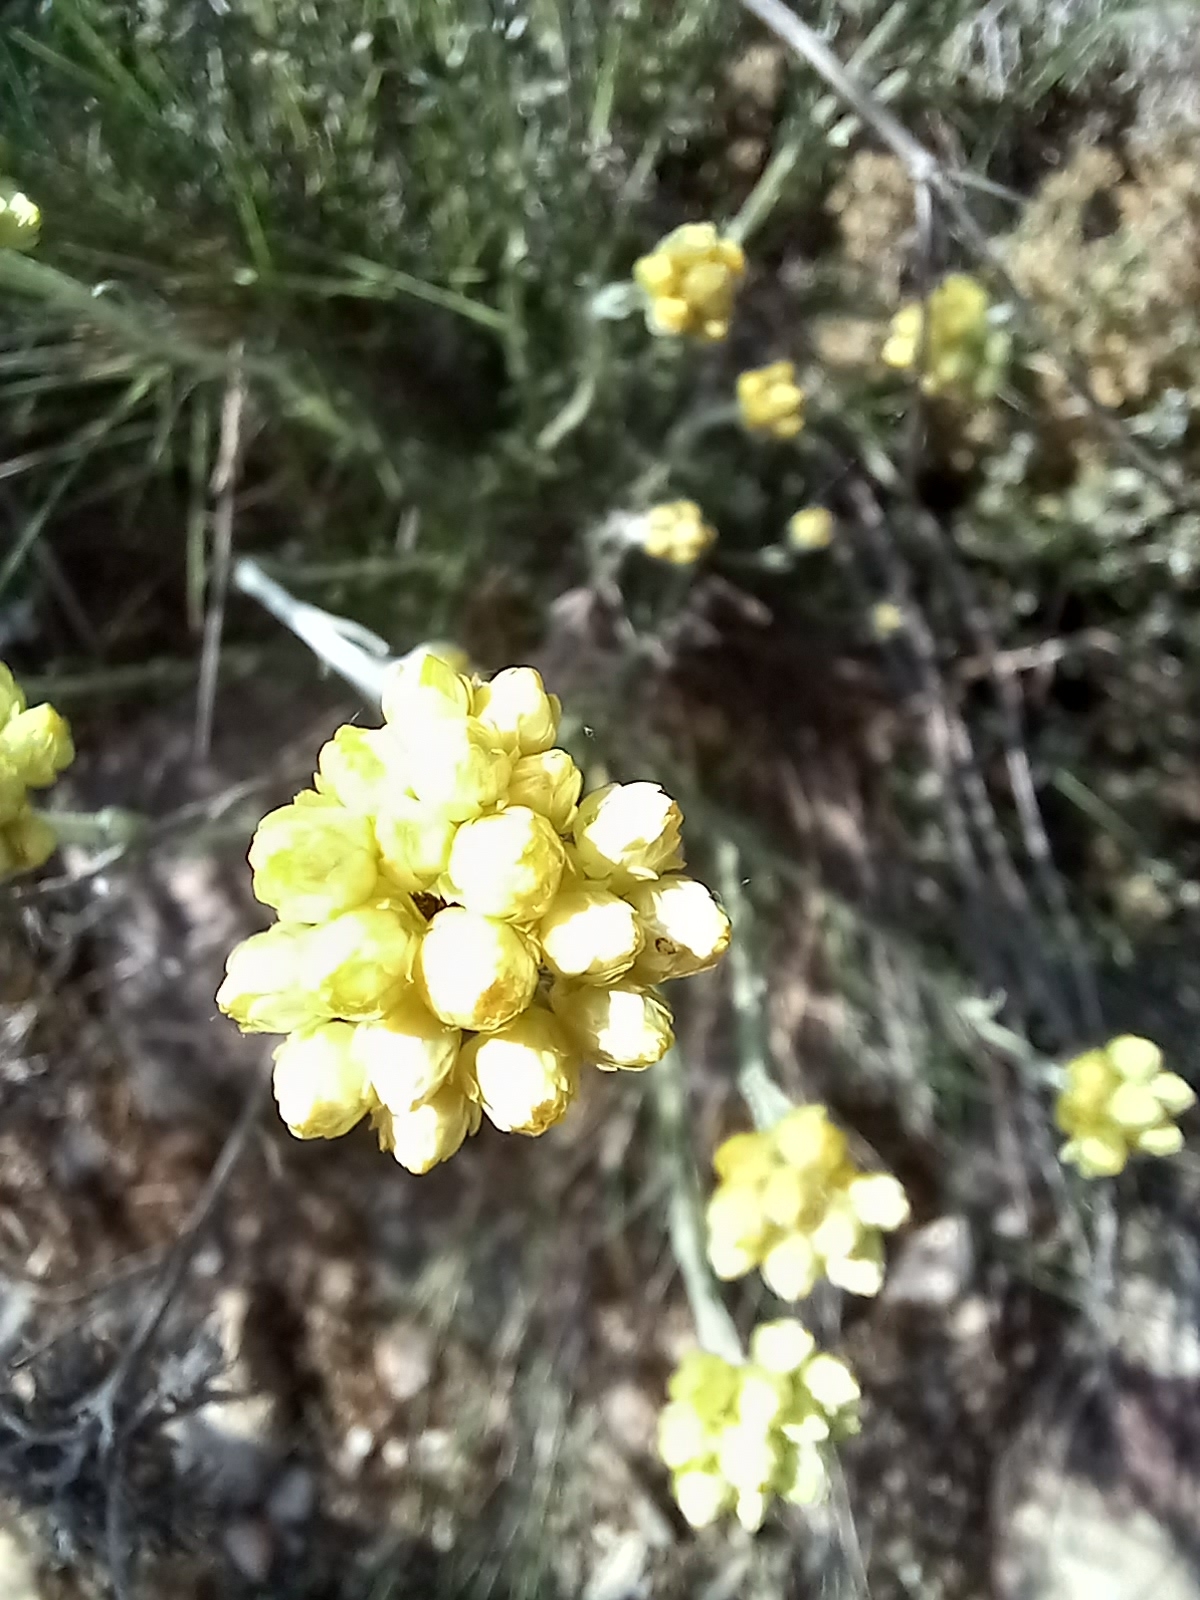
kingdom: Plantae
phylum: Tracheophyta
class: Magnoliopsida
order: Asterales
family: Asteraceae
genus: Helichrysum
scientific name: Helichrysum stoechas
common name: Goldilocks
